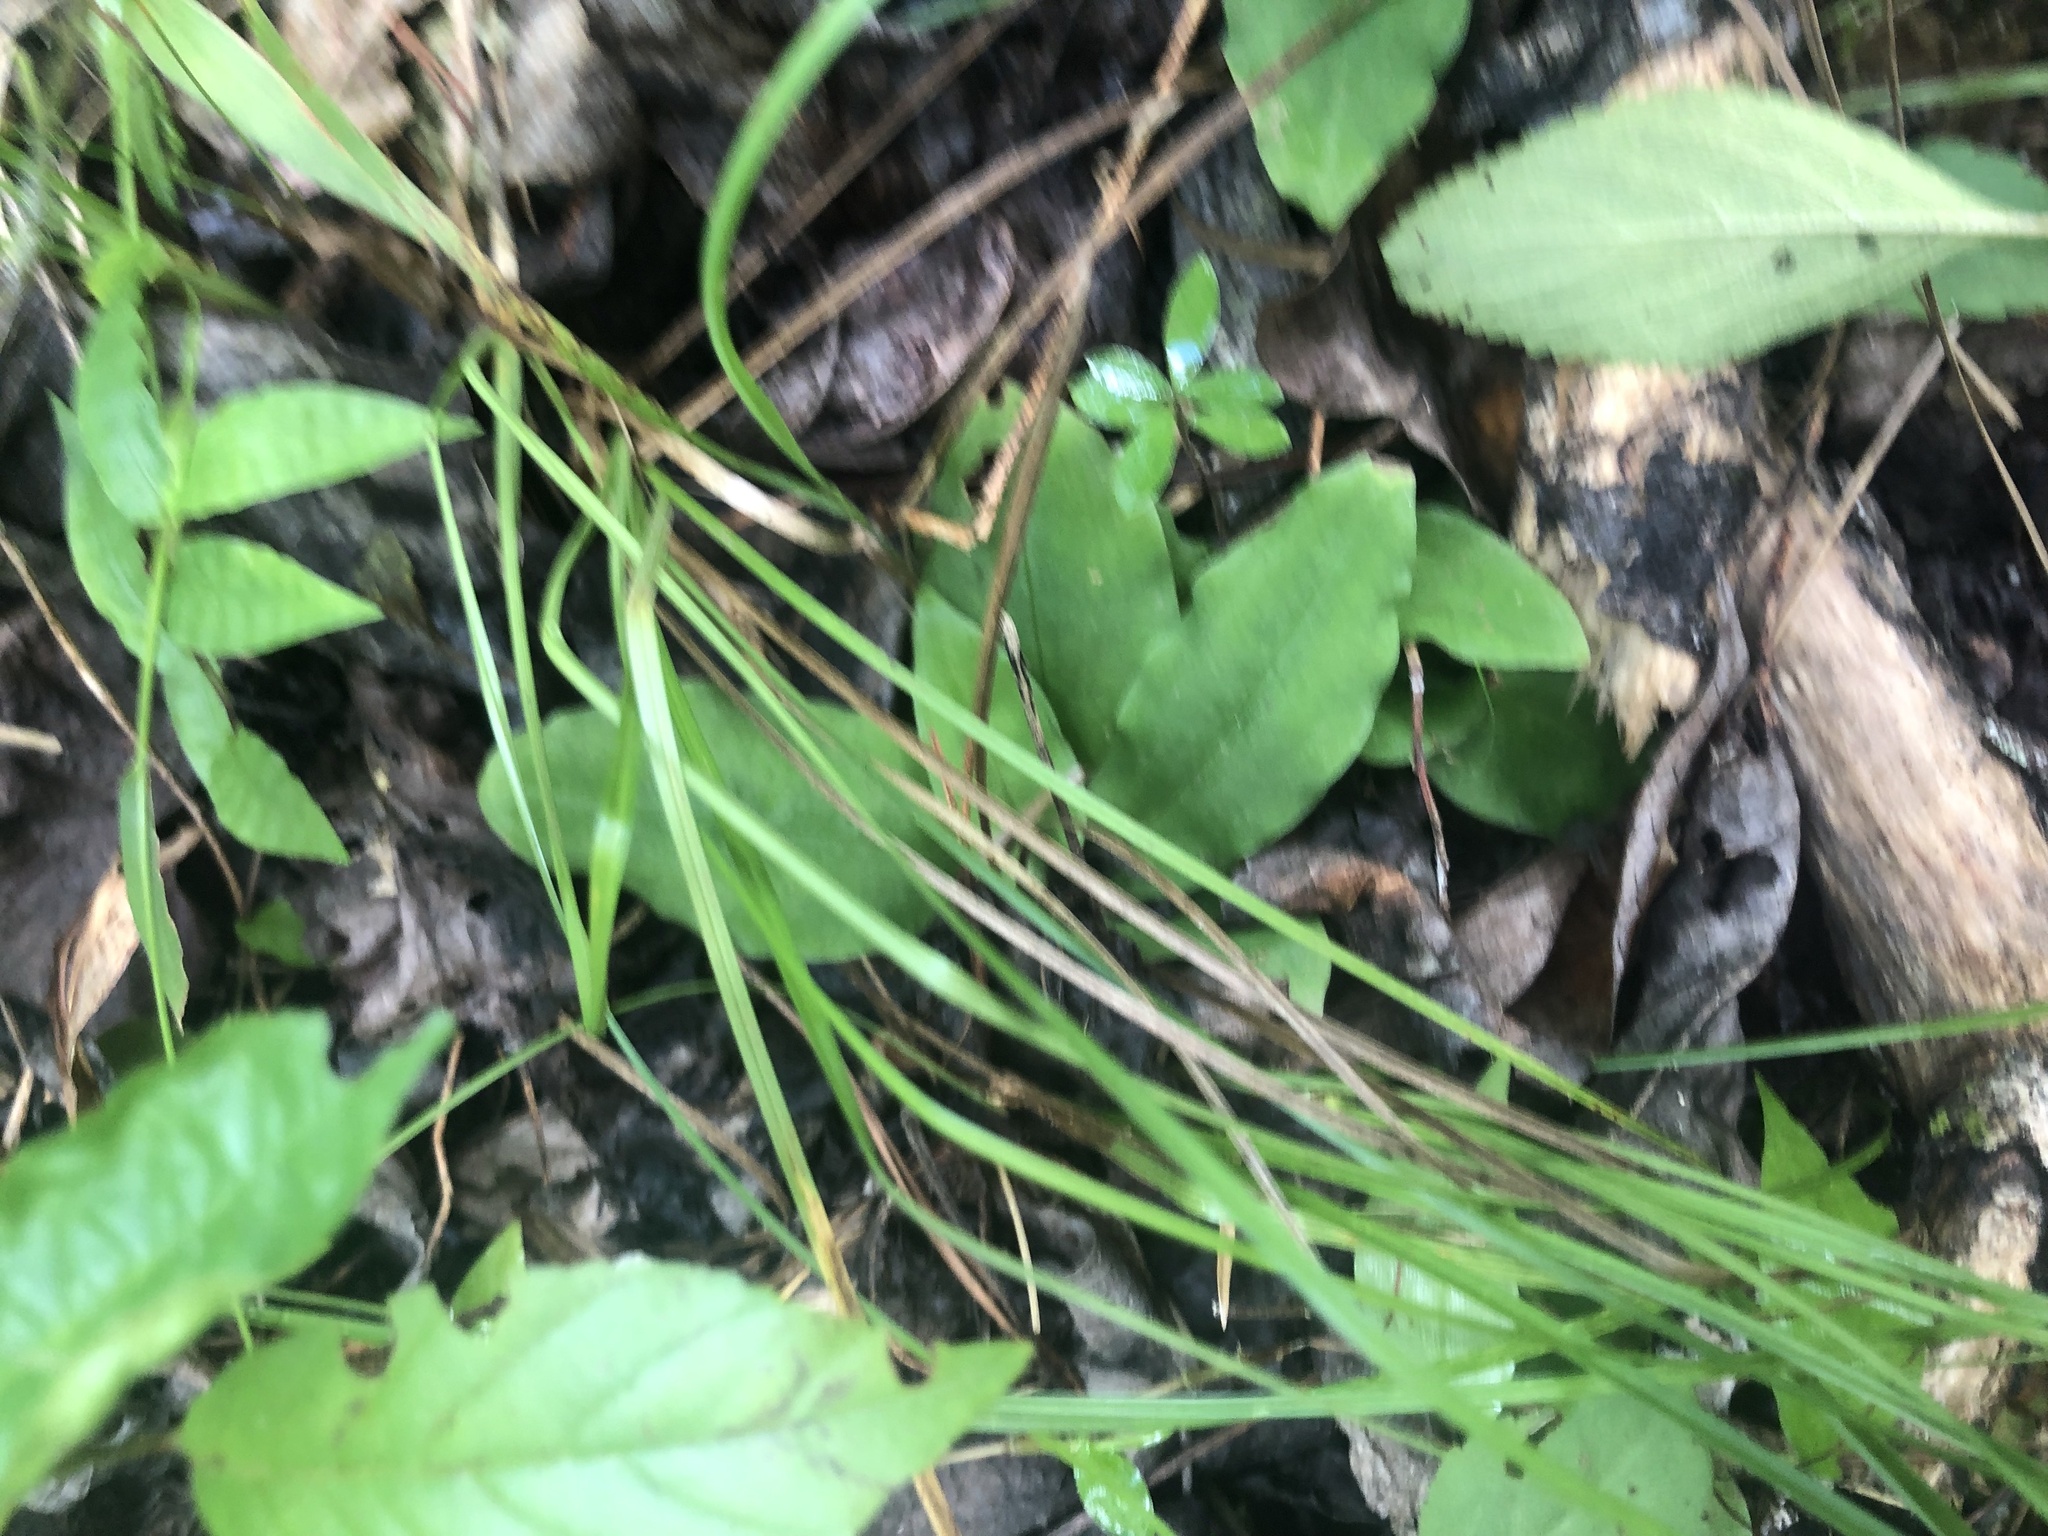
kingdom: Plantae
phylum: Tracheophyta
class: Liliopsida
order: Asparagales
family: Orchidaceae
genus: Ponthieva
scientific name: Ponthieva racemosa
